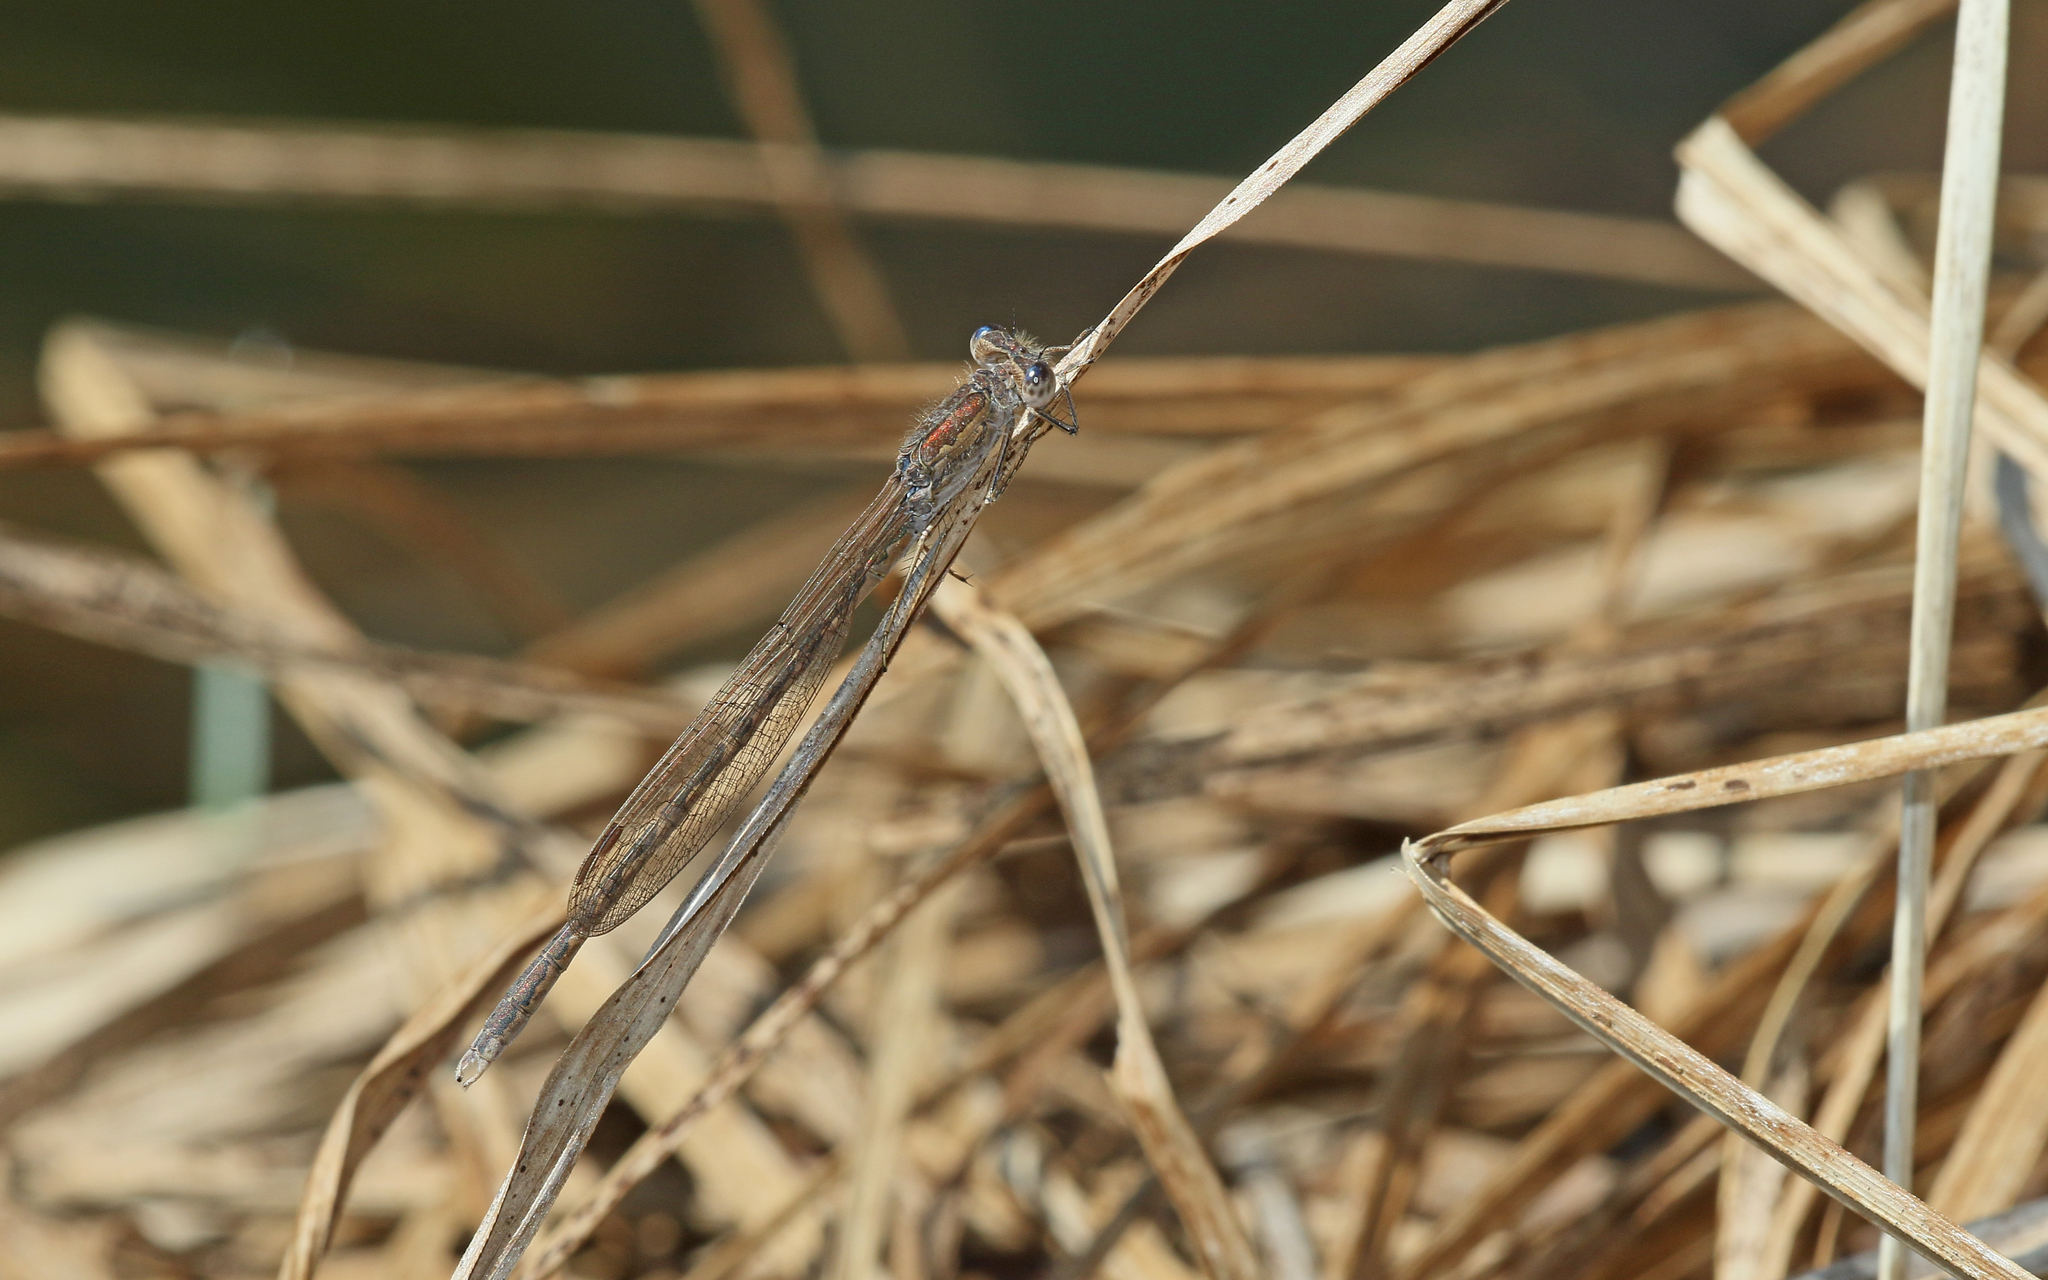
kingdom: Animalia
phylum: Arthropoda
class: Insecta
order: Odonata
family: Lestidae
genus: Sympecma
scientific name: Sympecma paedisca
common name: Siberian winter damsel
